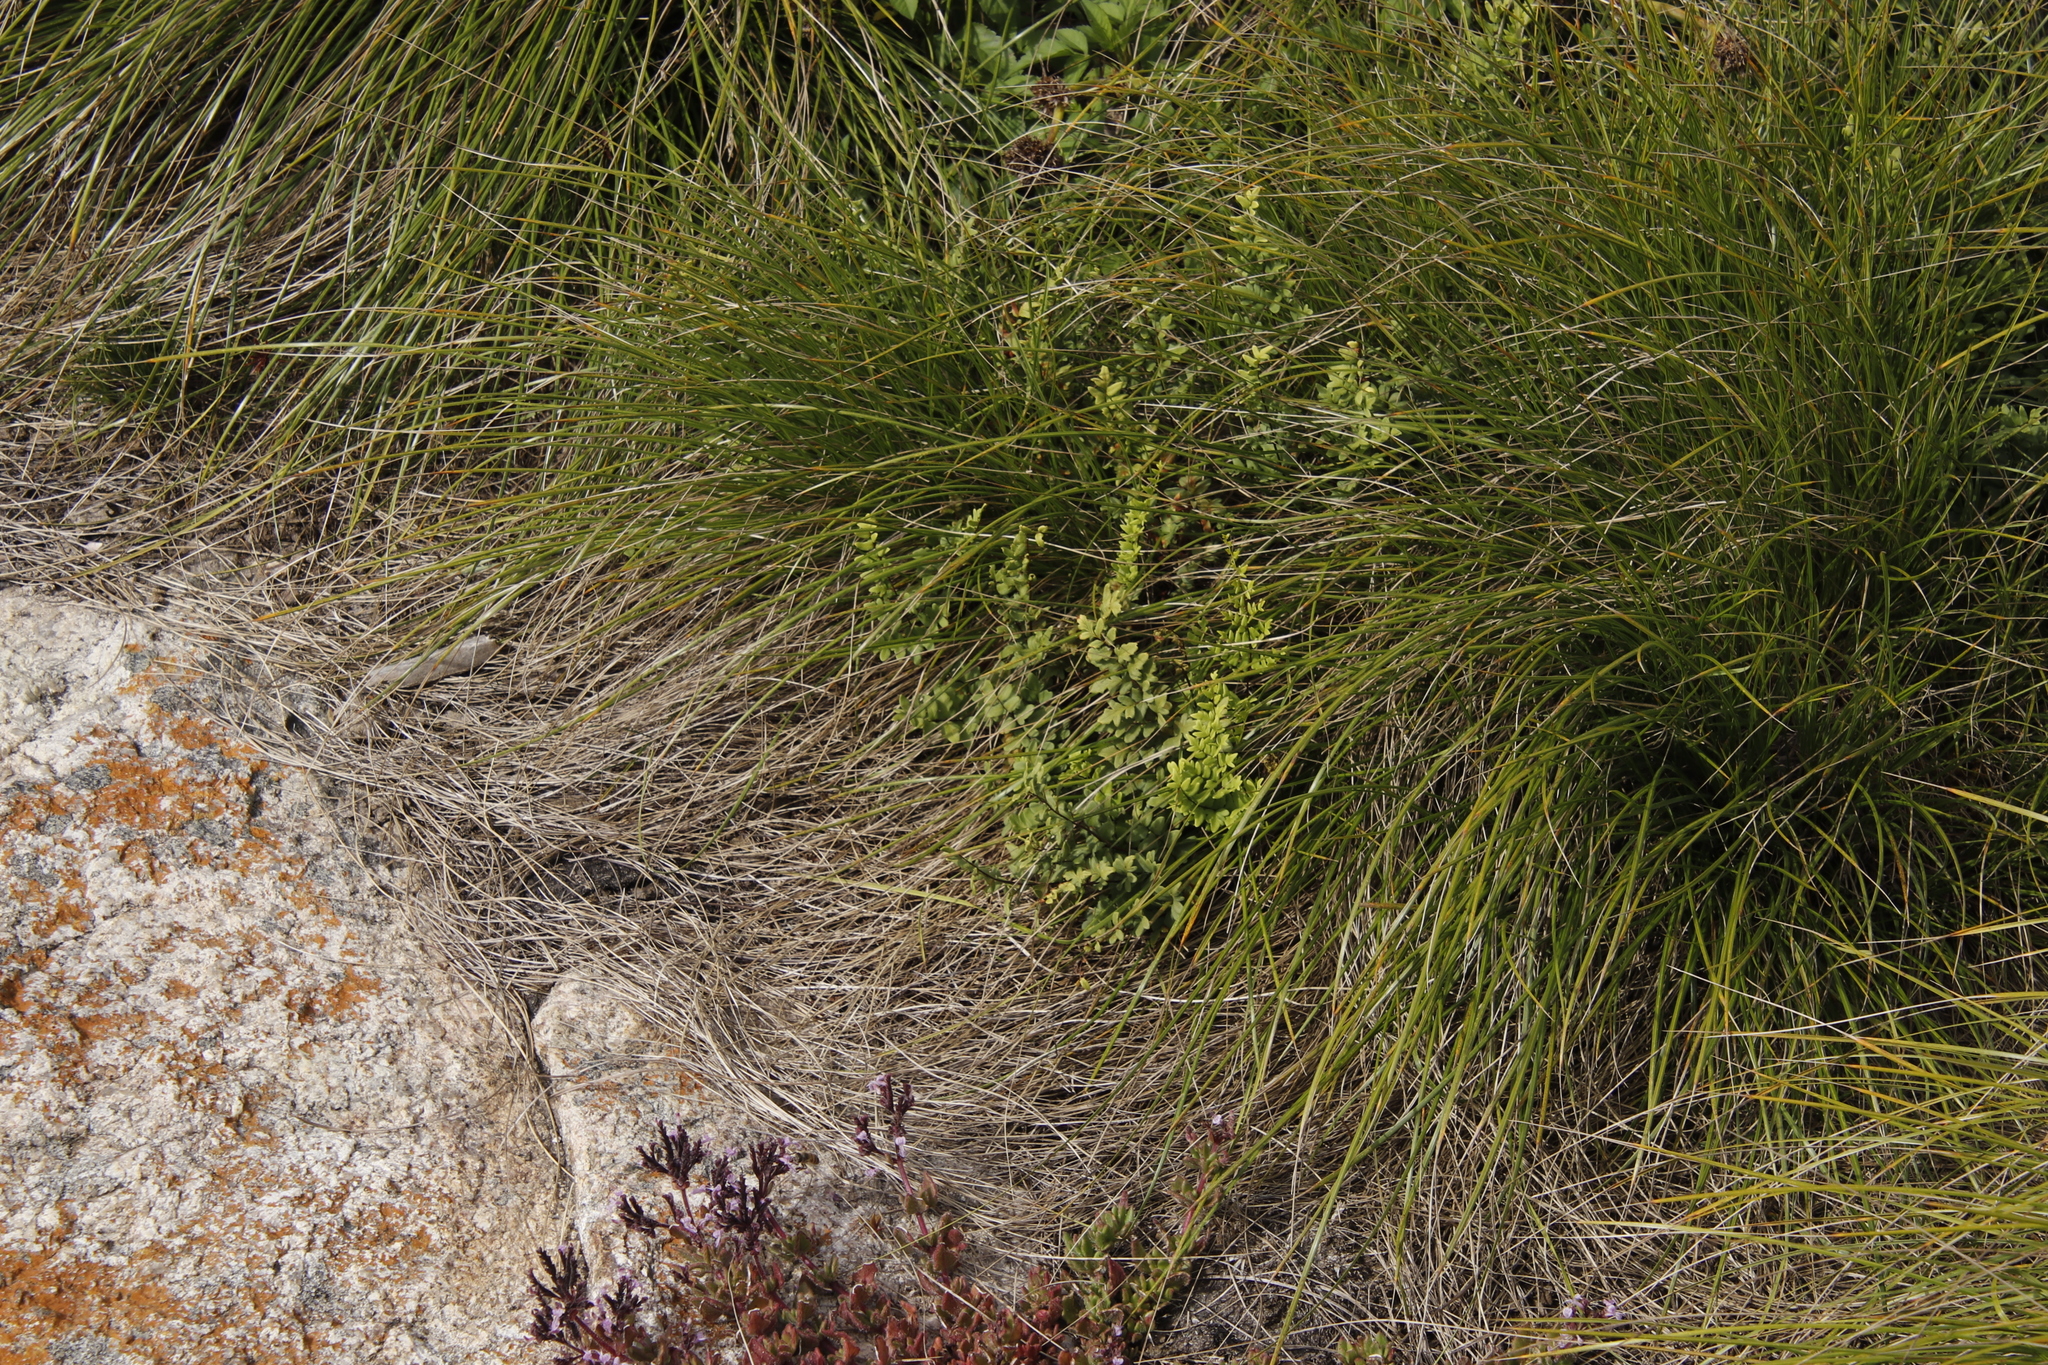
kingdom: Plantae
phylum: Tracheophyta
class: Polypodiopsida
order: Polypodiales
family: Pteridaceae
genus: Cheilanthes
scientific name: Cheilanthes viridis
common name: Green cliffbrake
